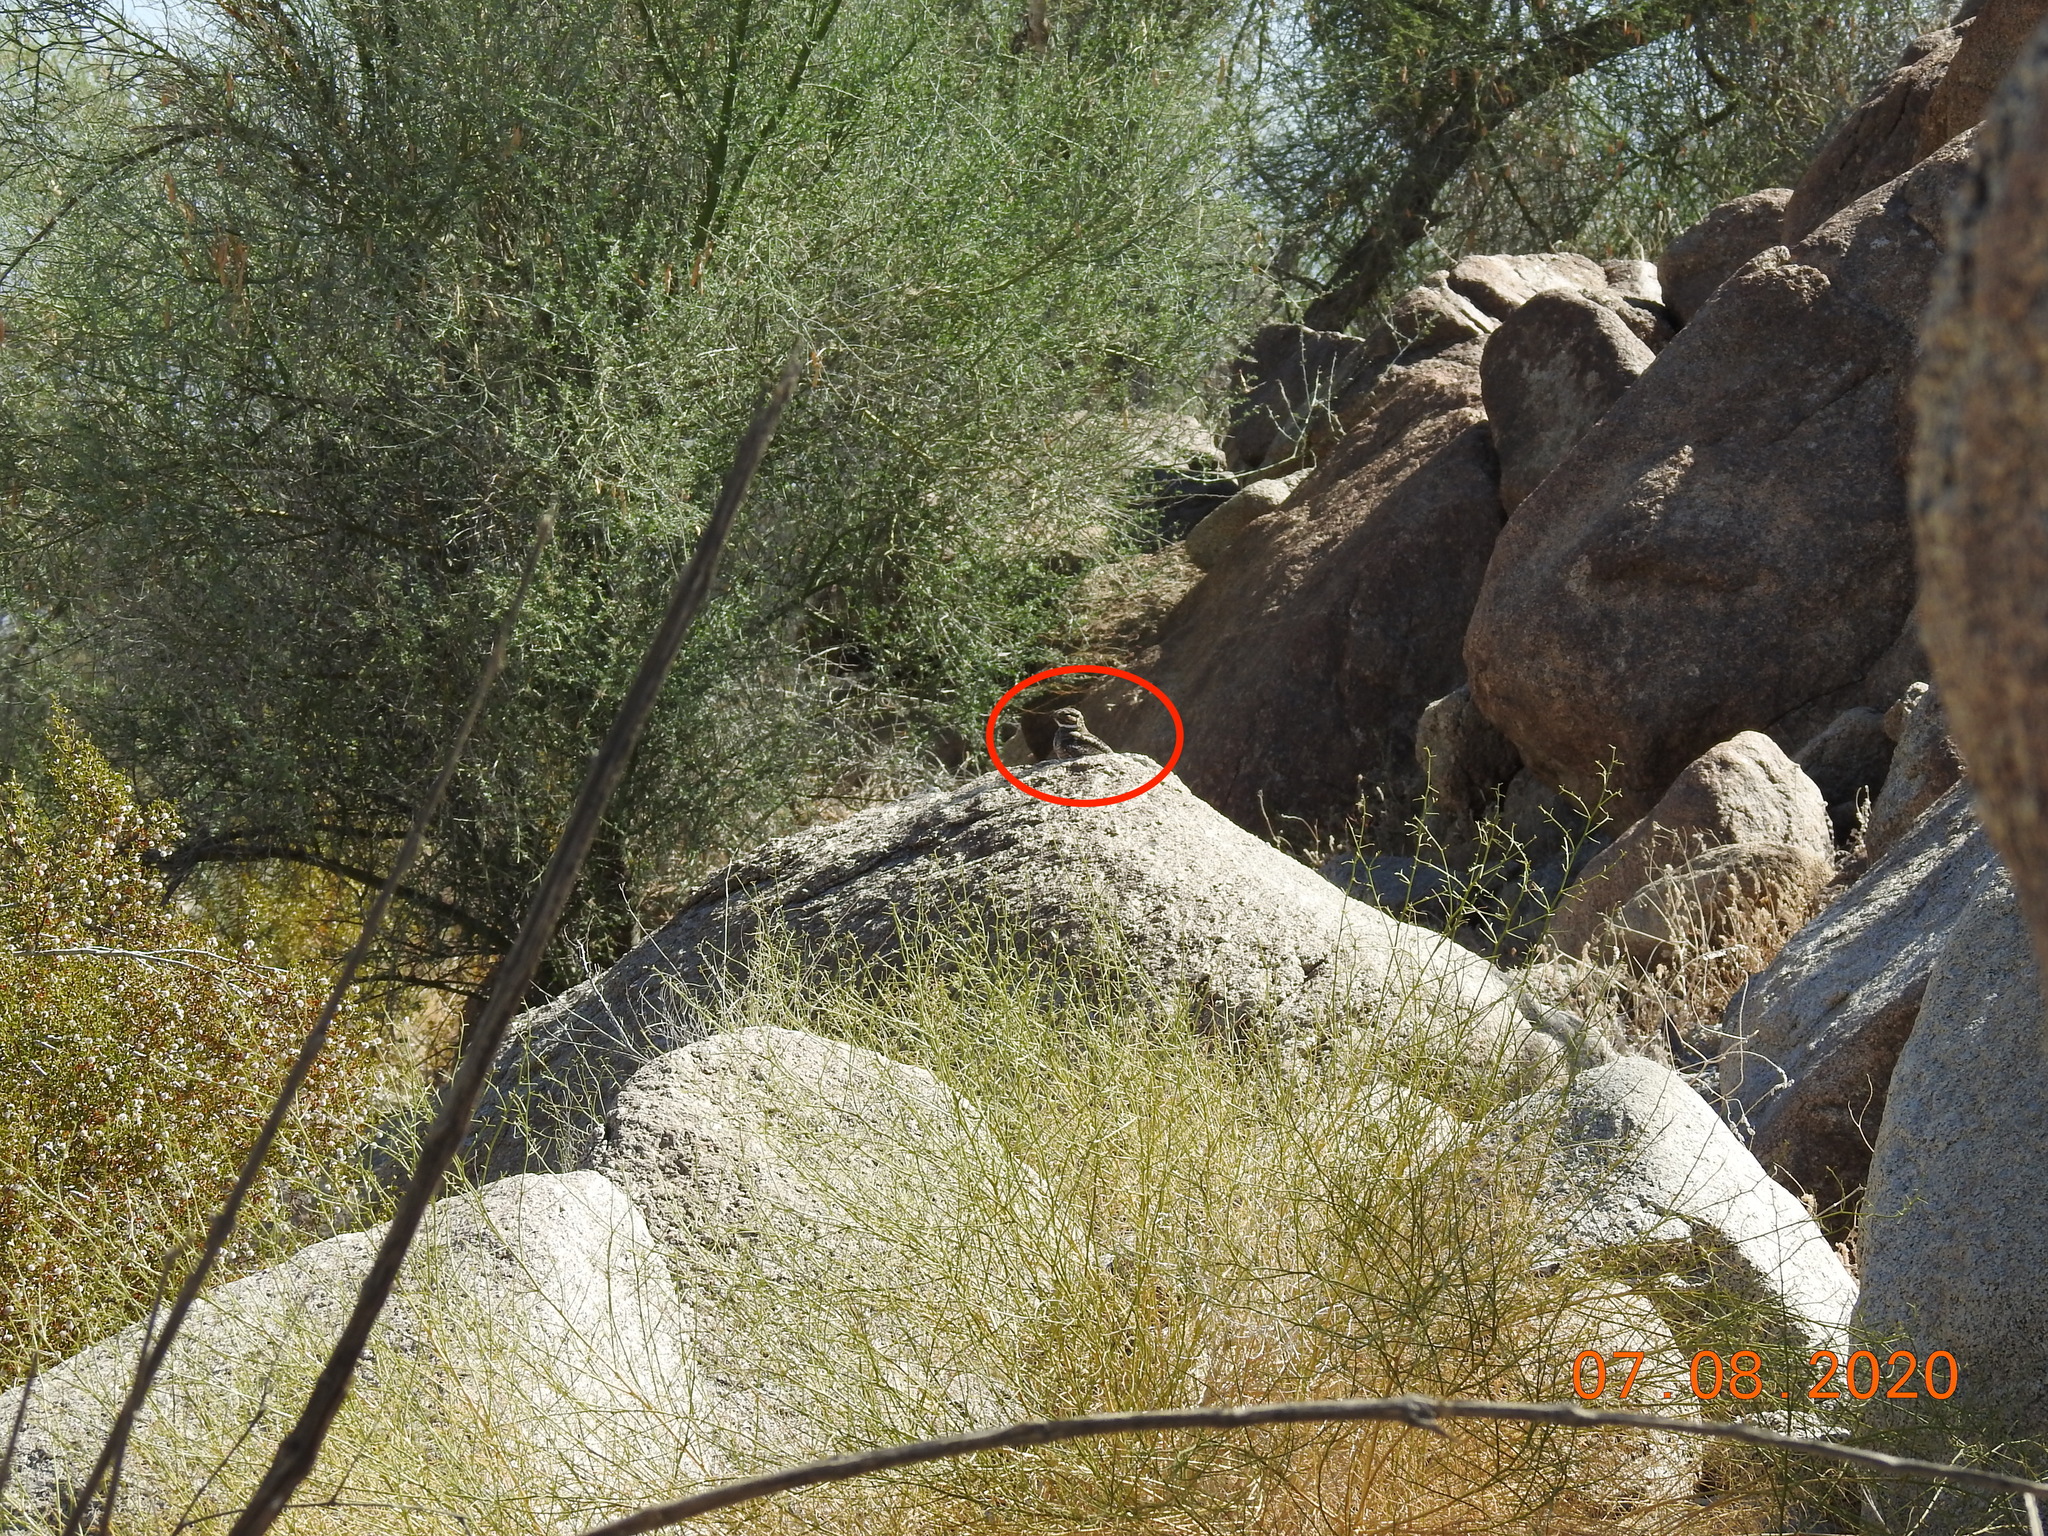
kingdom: Animalia
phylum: Chordata
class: Aves
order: Caprimulgiformes
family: Caprimulgidae
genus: Chordeiles
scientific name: Chordeiles acutipennis
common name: Lesser nighthawk
